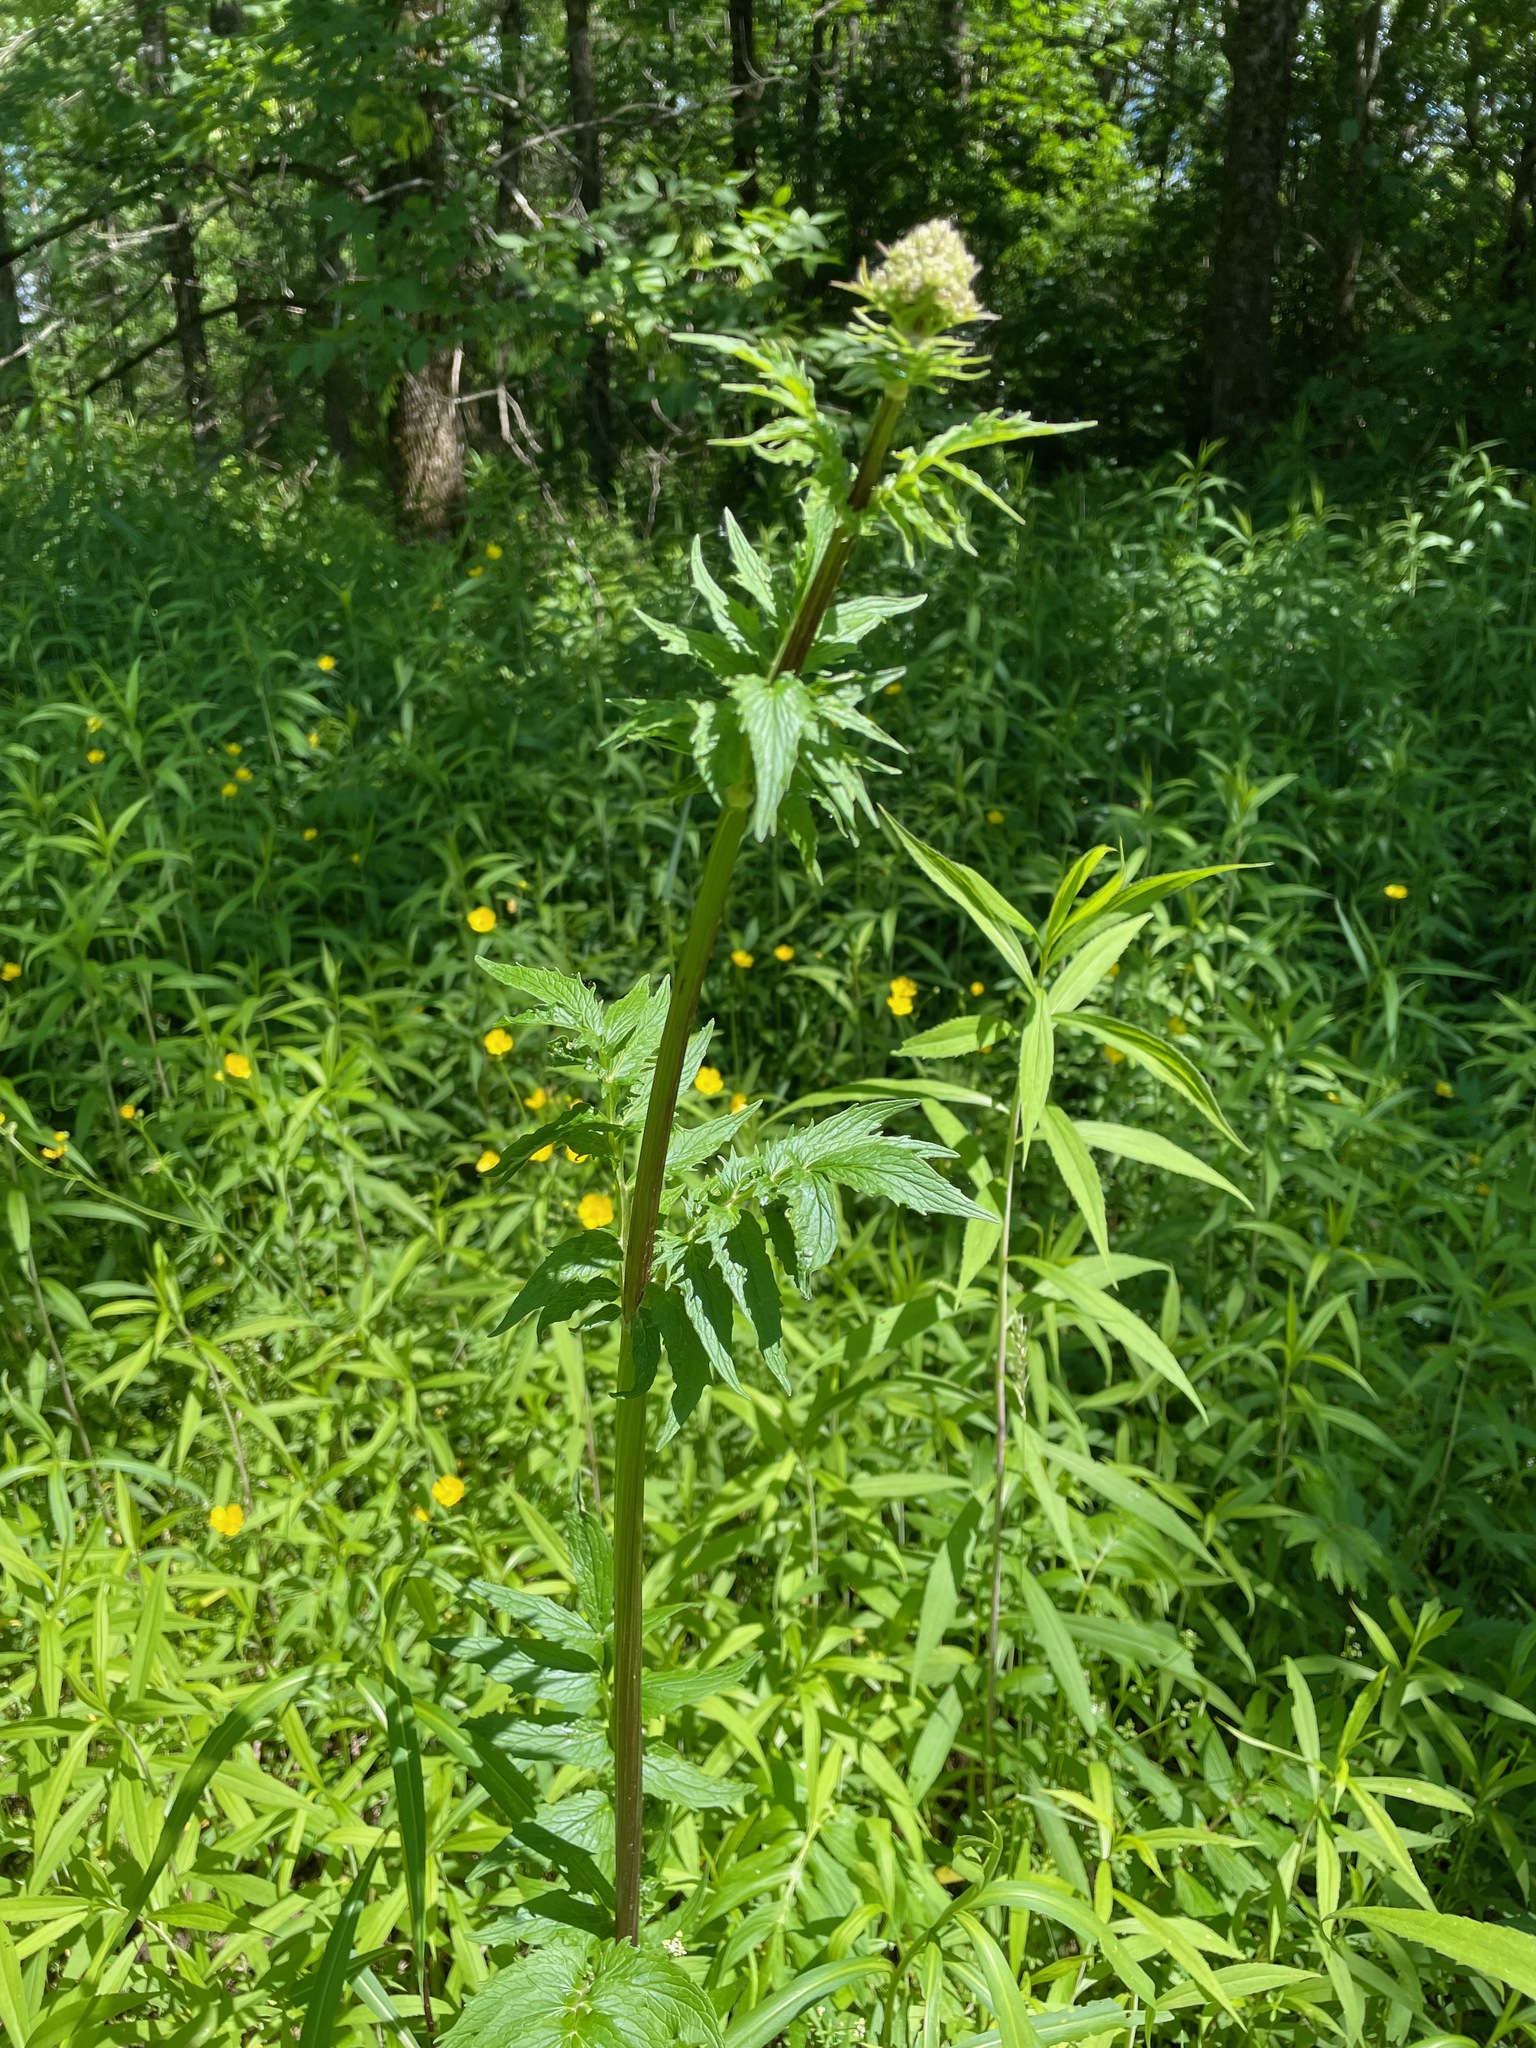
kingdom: Plantae
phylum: Tracheophyta
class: Magnoliopsida
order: Dipsacales
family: Caprifoliaceae
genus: Valeriana
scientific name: Valeriana officinalis
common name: Common valerian
